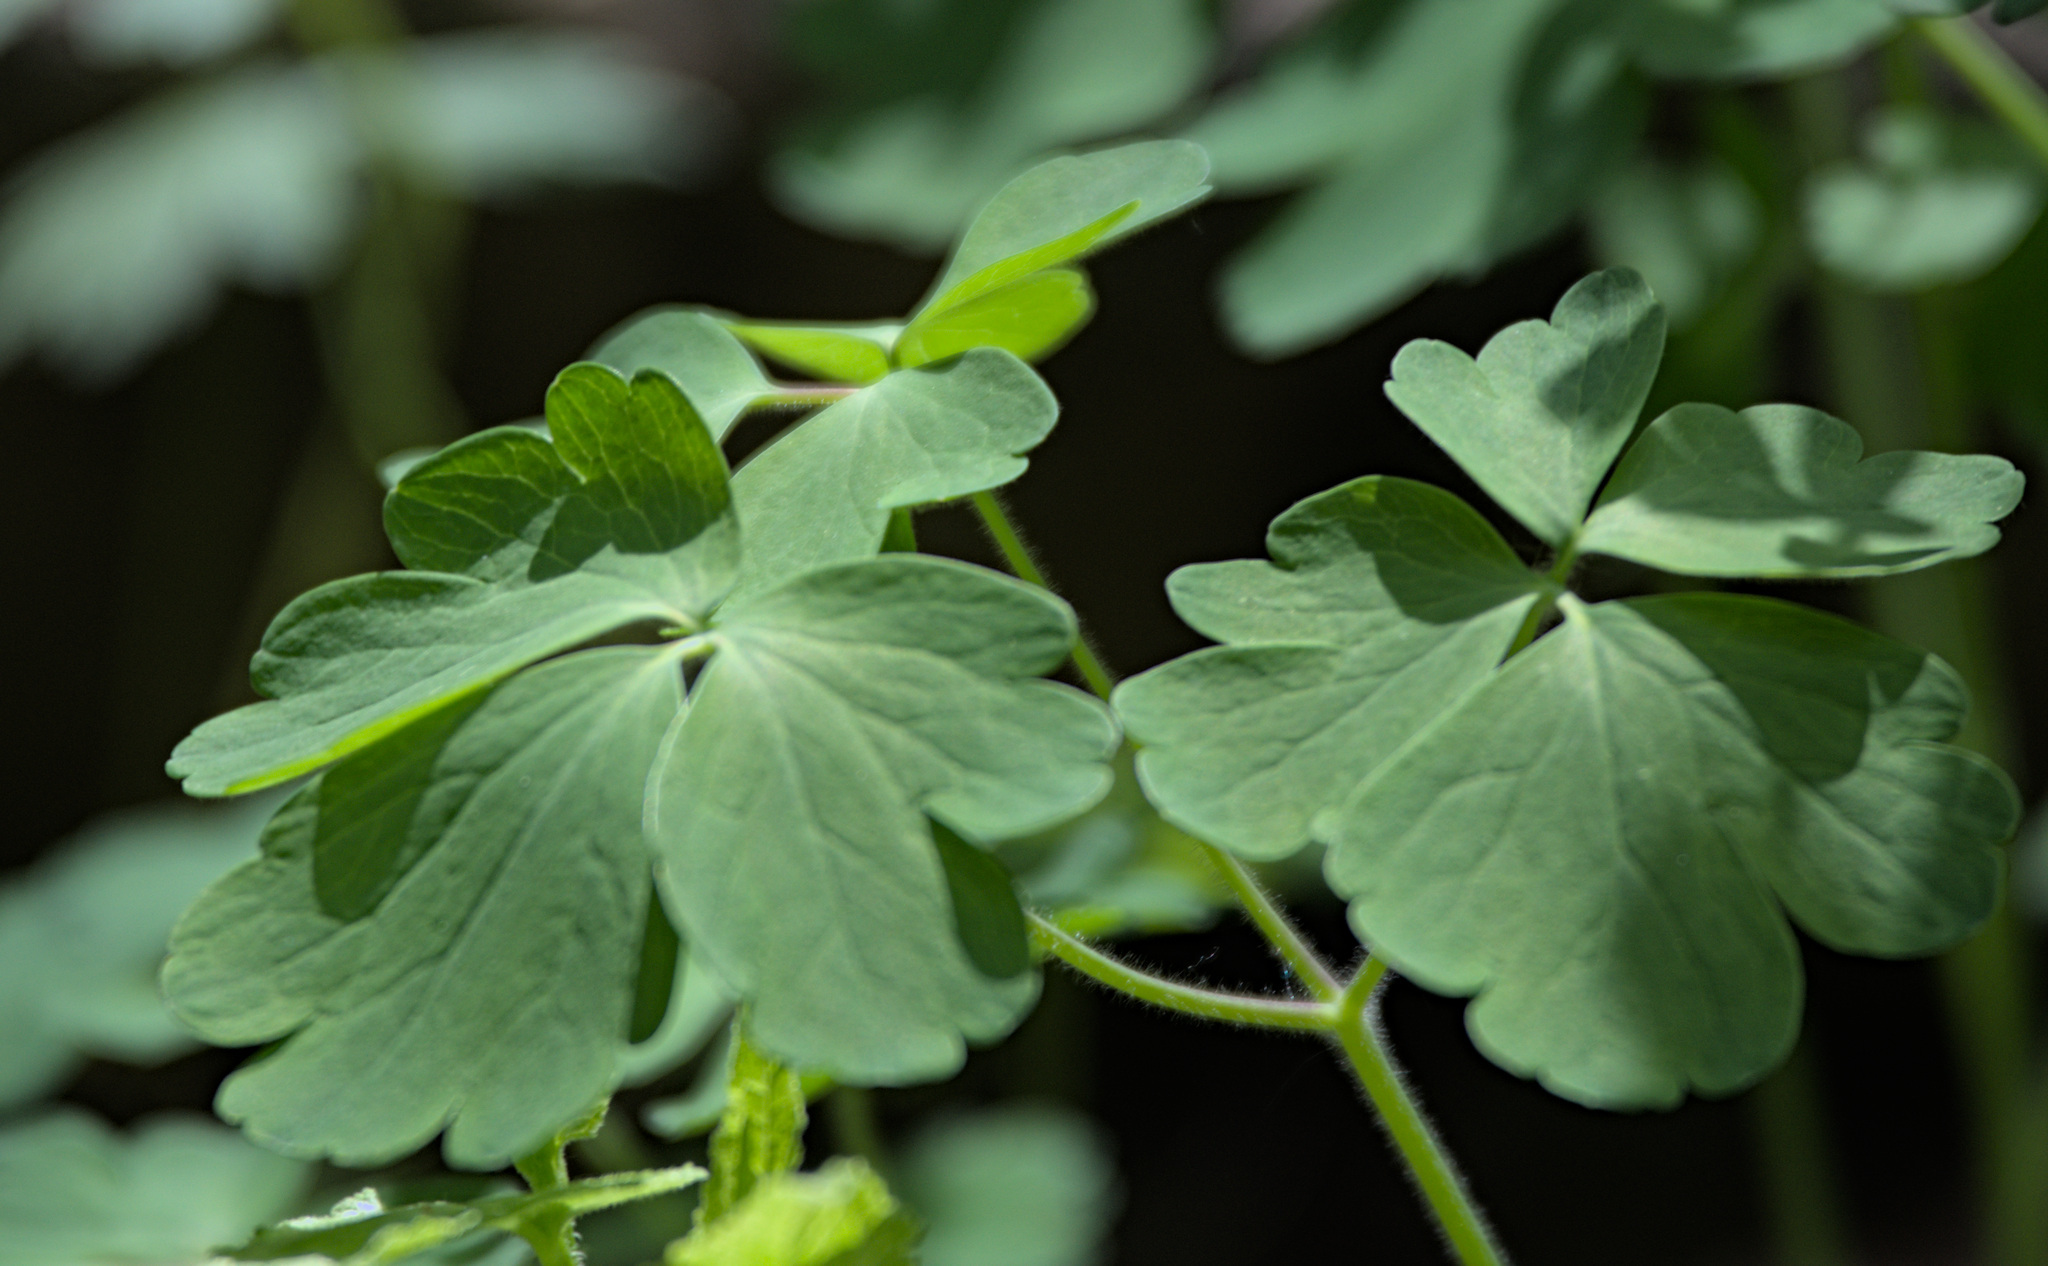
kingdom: Plantae
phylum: Tracheophyta
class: Magnoliopsida
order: Ranunculales
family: Ranunculaceae
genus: Aquilegia
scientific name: Aquilegia vulgaris
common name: Columbine
